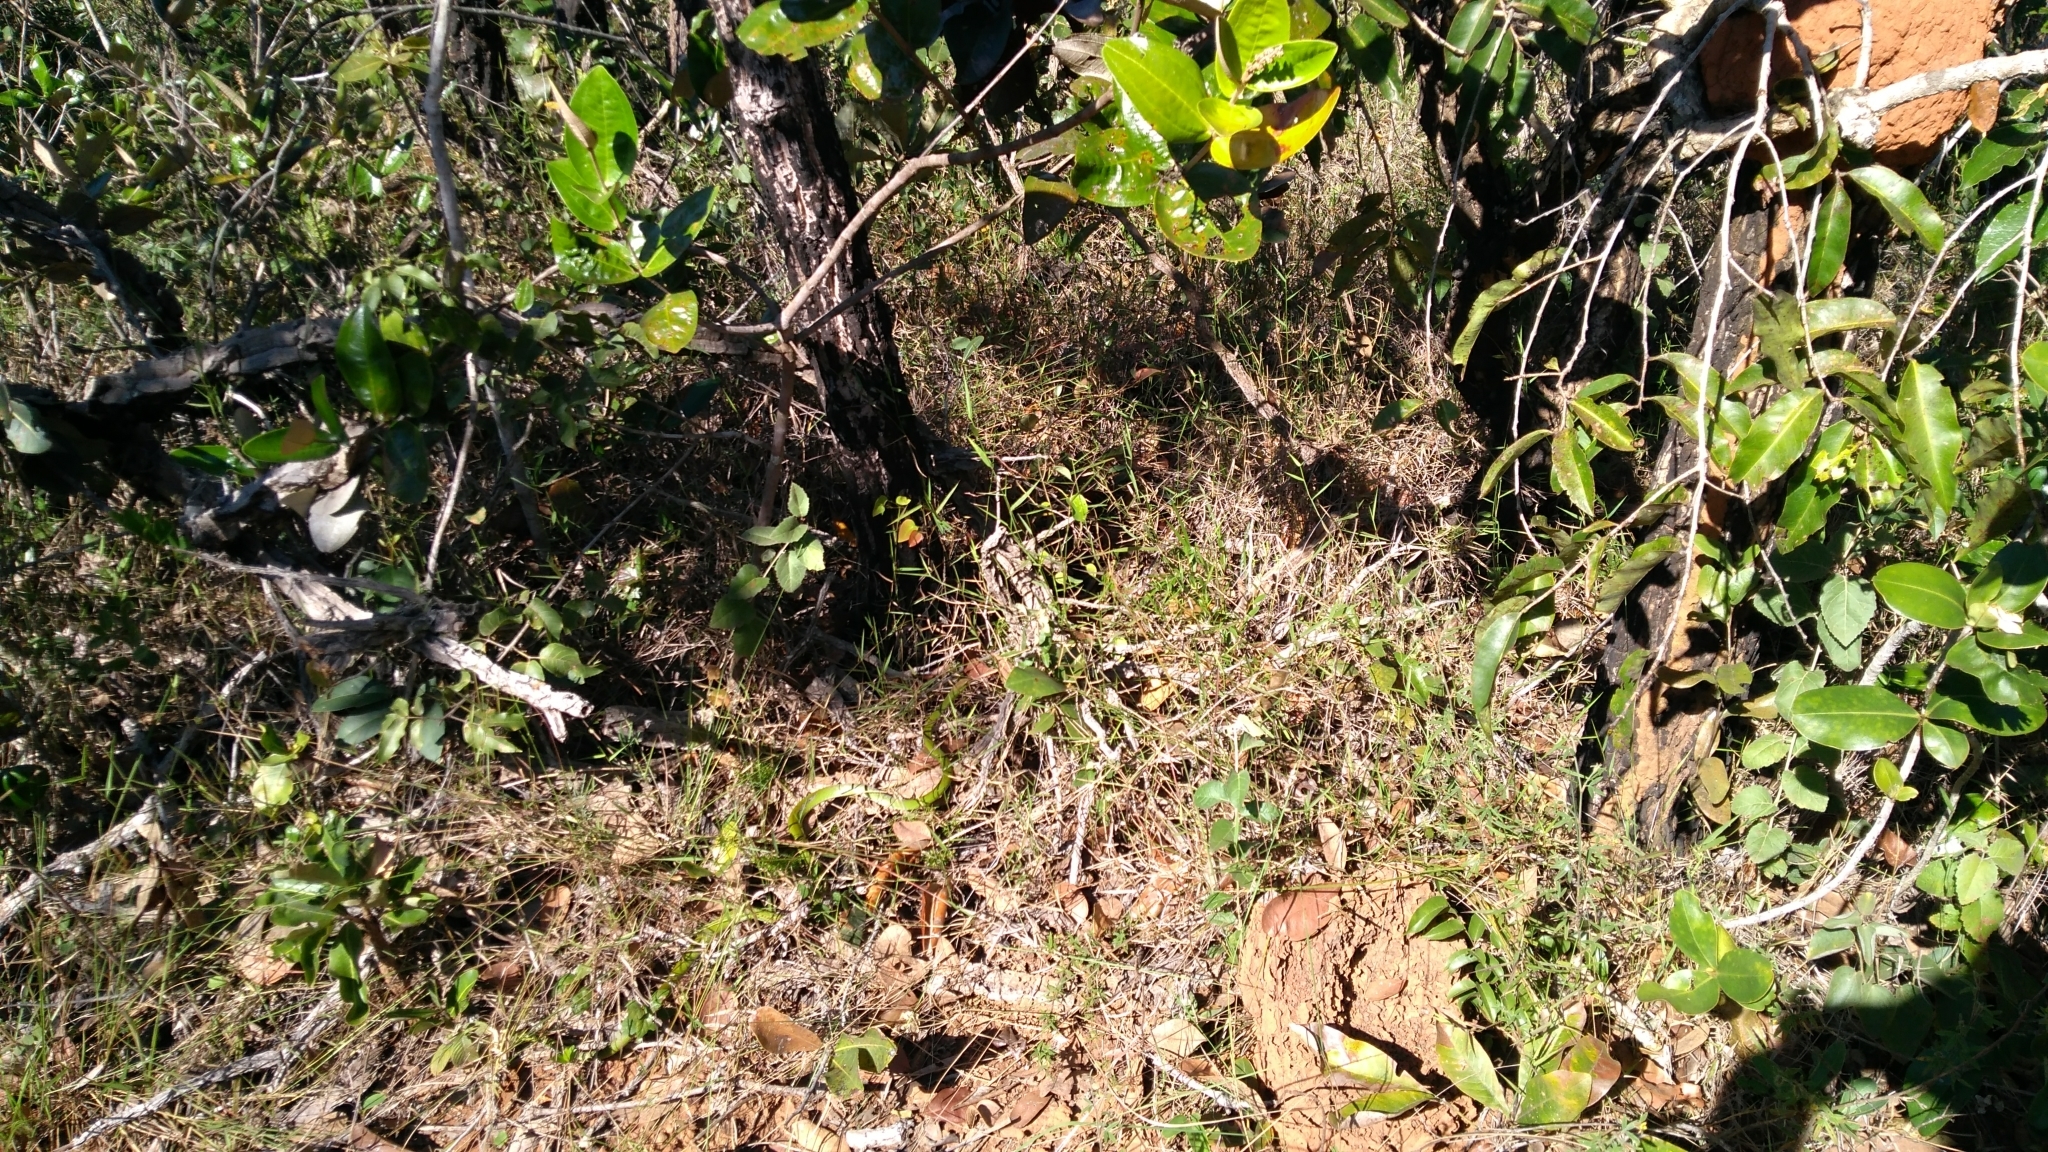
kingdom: Animalia
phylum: Chordata
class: Squamata
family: Colubridae
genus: Philodryas
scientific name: Philodryas olfersii
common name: Lichtenstein's green racer
